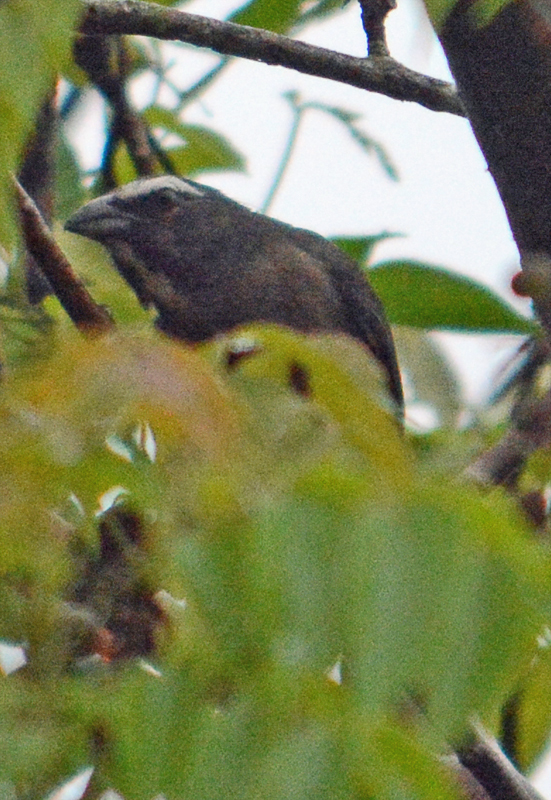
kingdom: Animalia
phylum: Chordata
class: Aves
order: Passeriformes
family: Thraupidae
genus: Saltator
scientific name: Saltator grandis
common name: Cinnamon-bellied saltator
